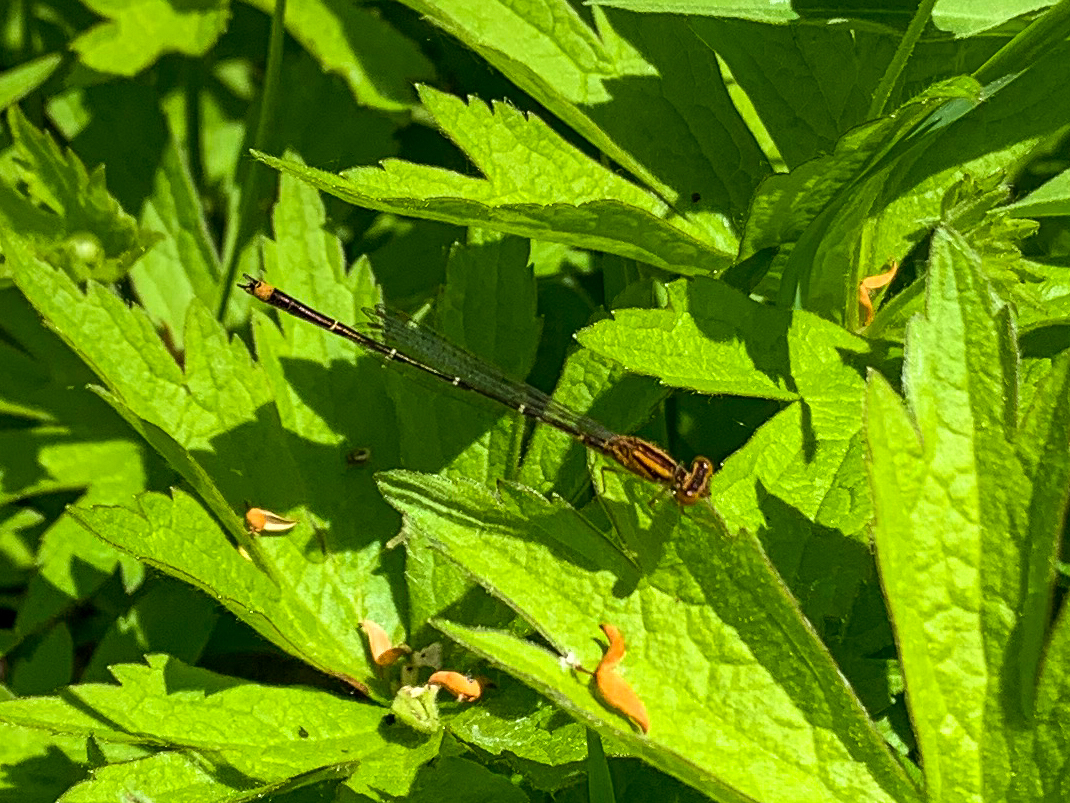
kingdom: Animalia
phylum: Arthropoda
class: Insecta
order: Odonata
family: Coenagrionidae
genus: Enallagma
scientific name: Enallagma signatum
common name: Orange bluet
